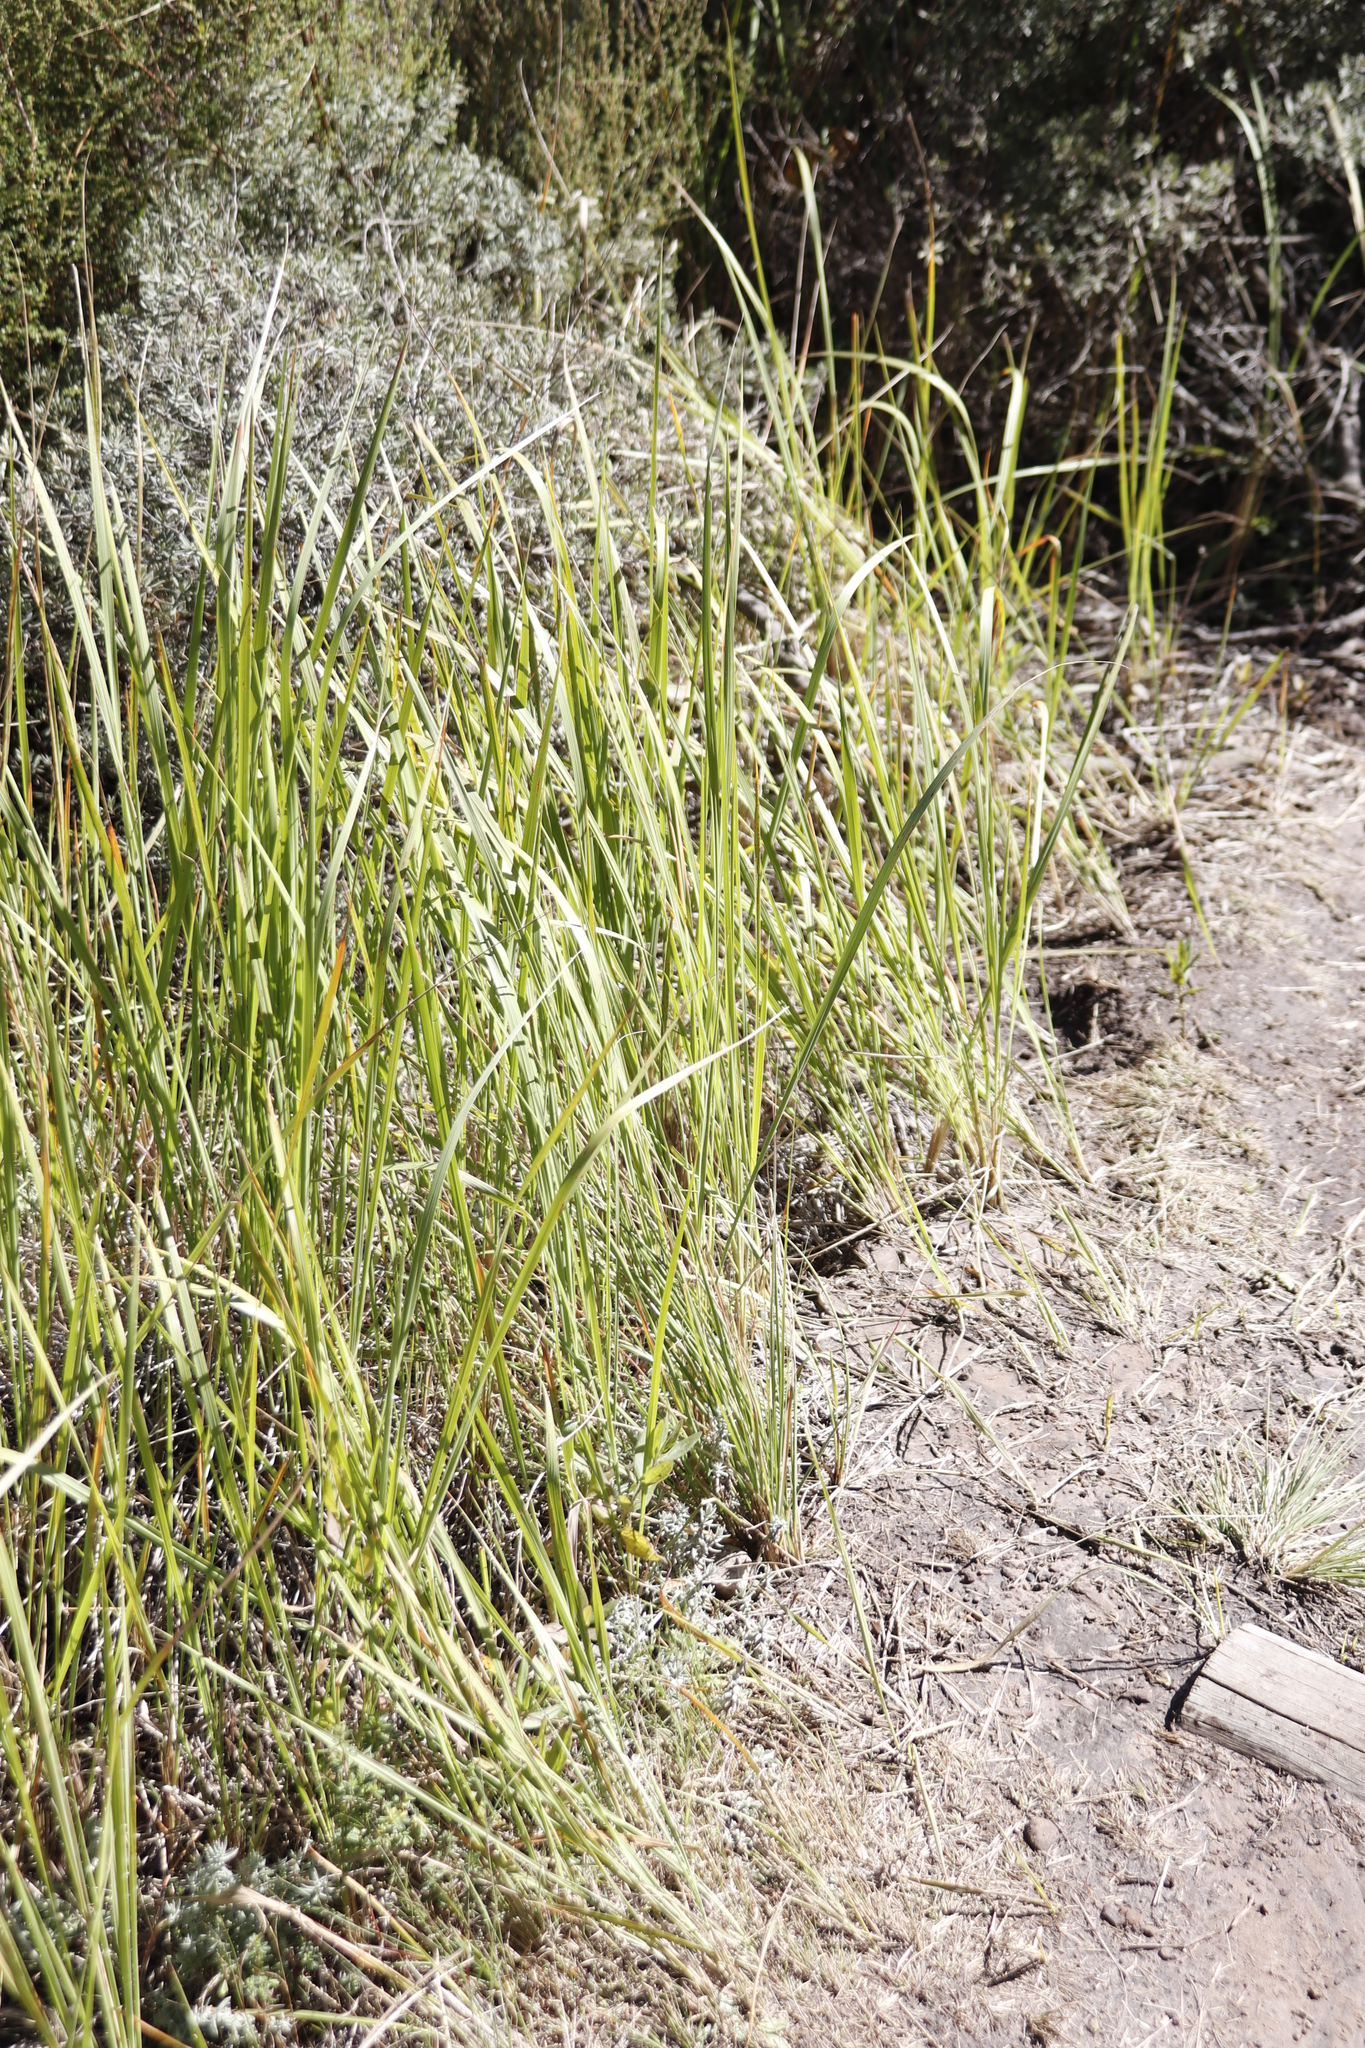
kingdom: Plantae
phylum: Tracheophyta
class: Liliopsida
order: Poales
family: Poaceae
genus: Imperata
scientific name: Imperata cylindrica
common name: Cogongrass
